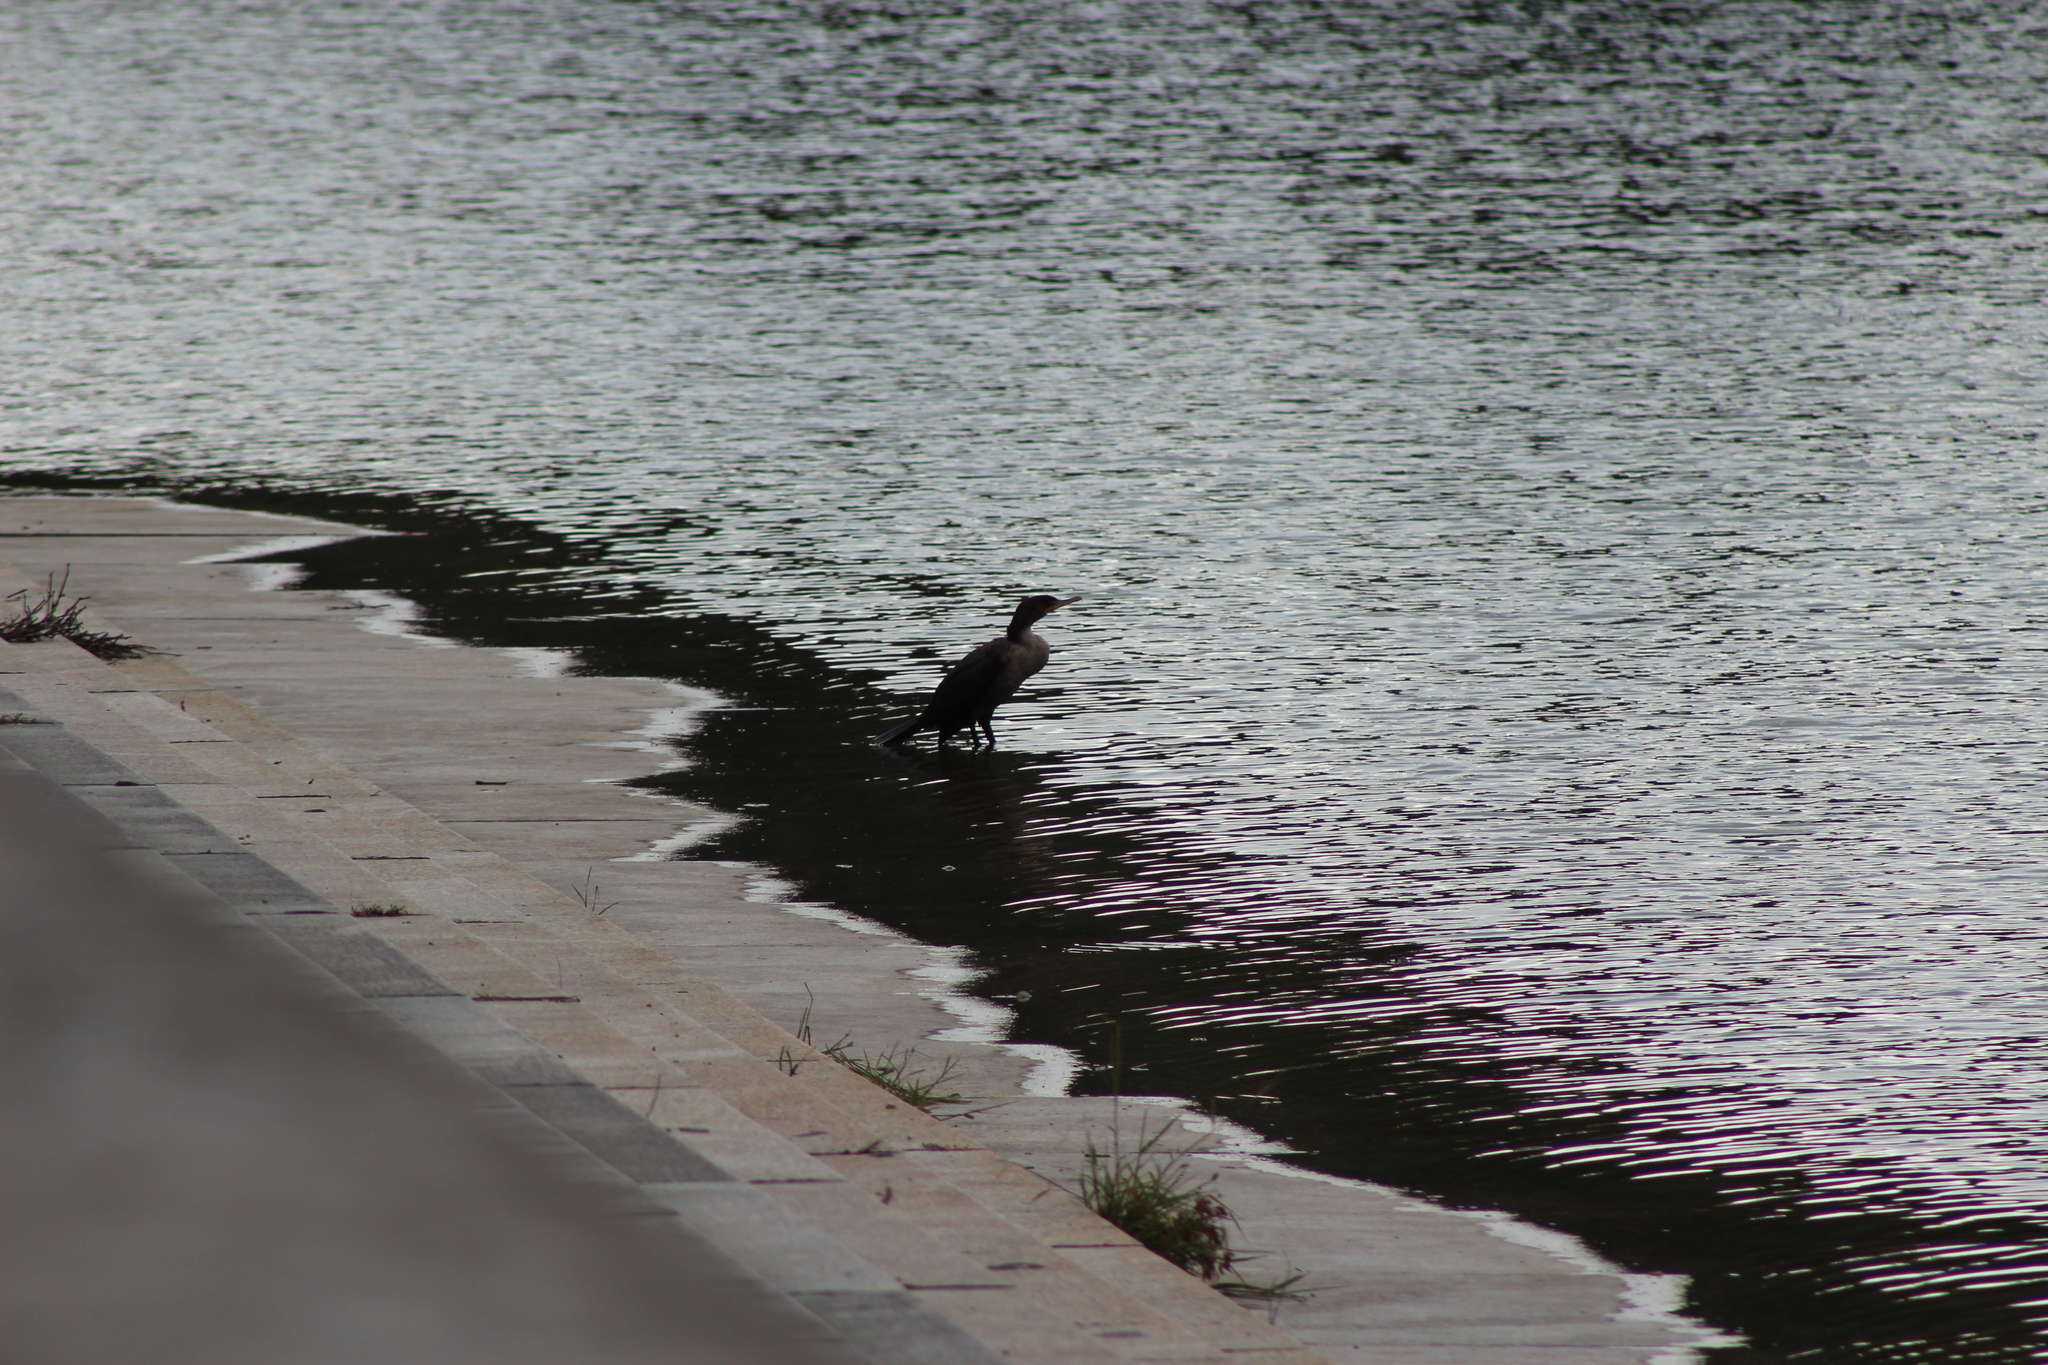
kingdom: Animalia
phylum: Chordata
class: Aves
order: Suliformes
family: Phalacrocoracidae
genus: Phalacrocorax
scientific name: Phalacrocorax auritus
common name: Double-crested cormorant
